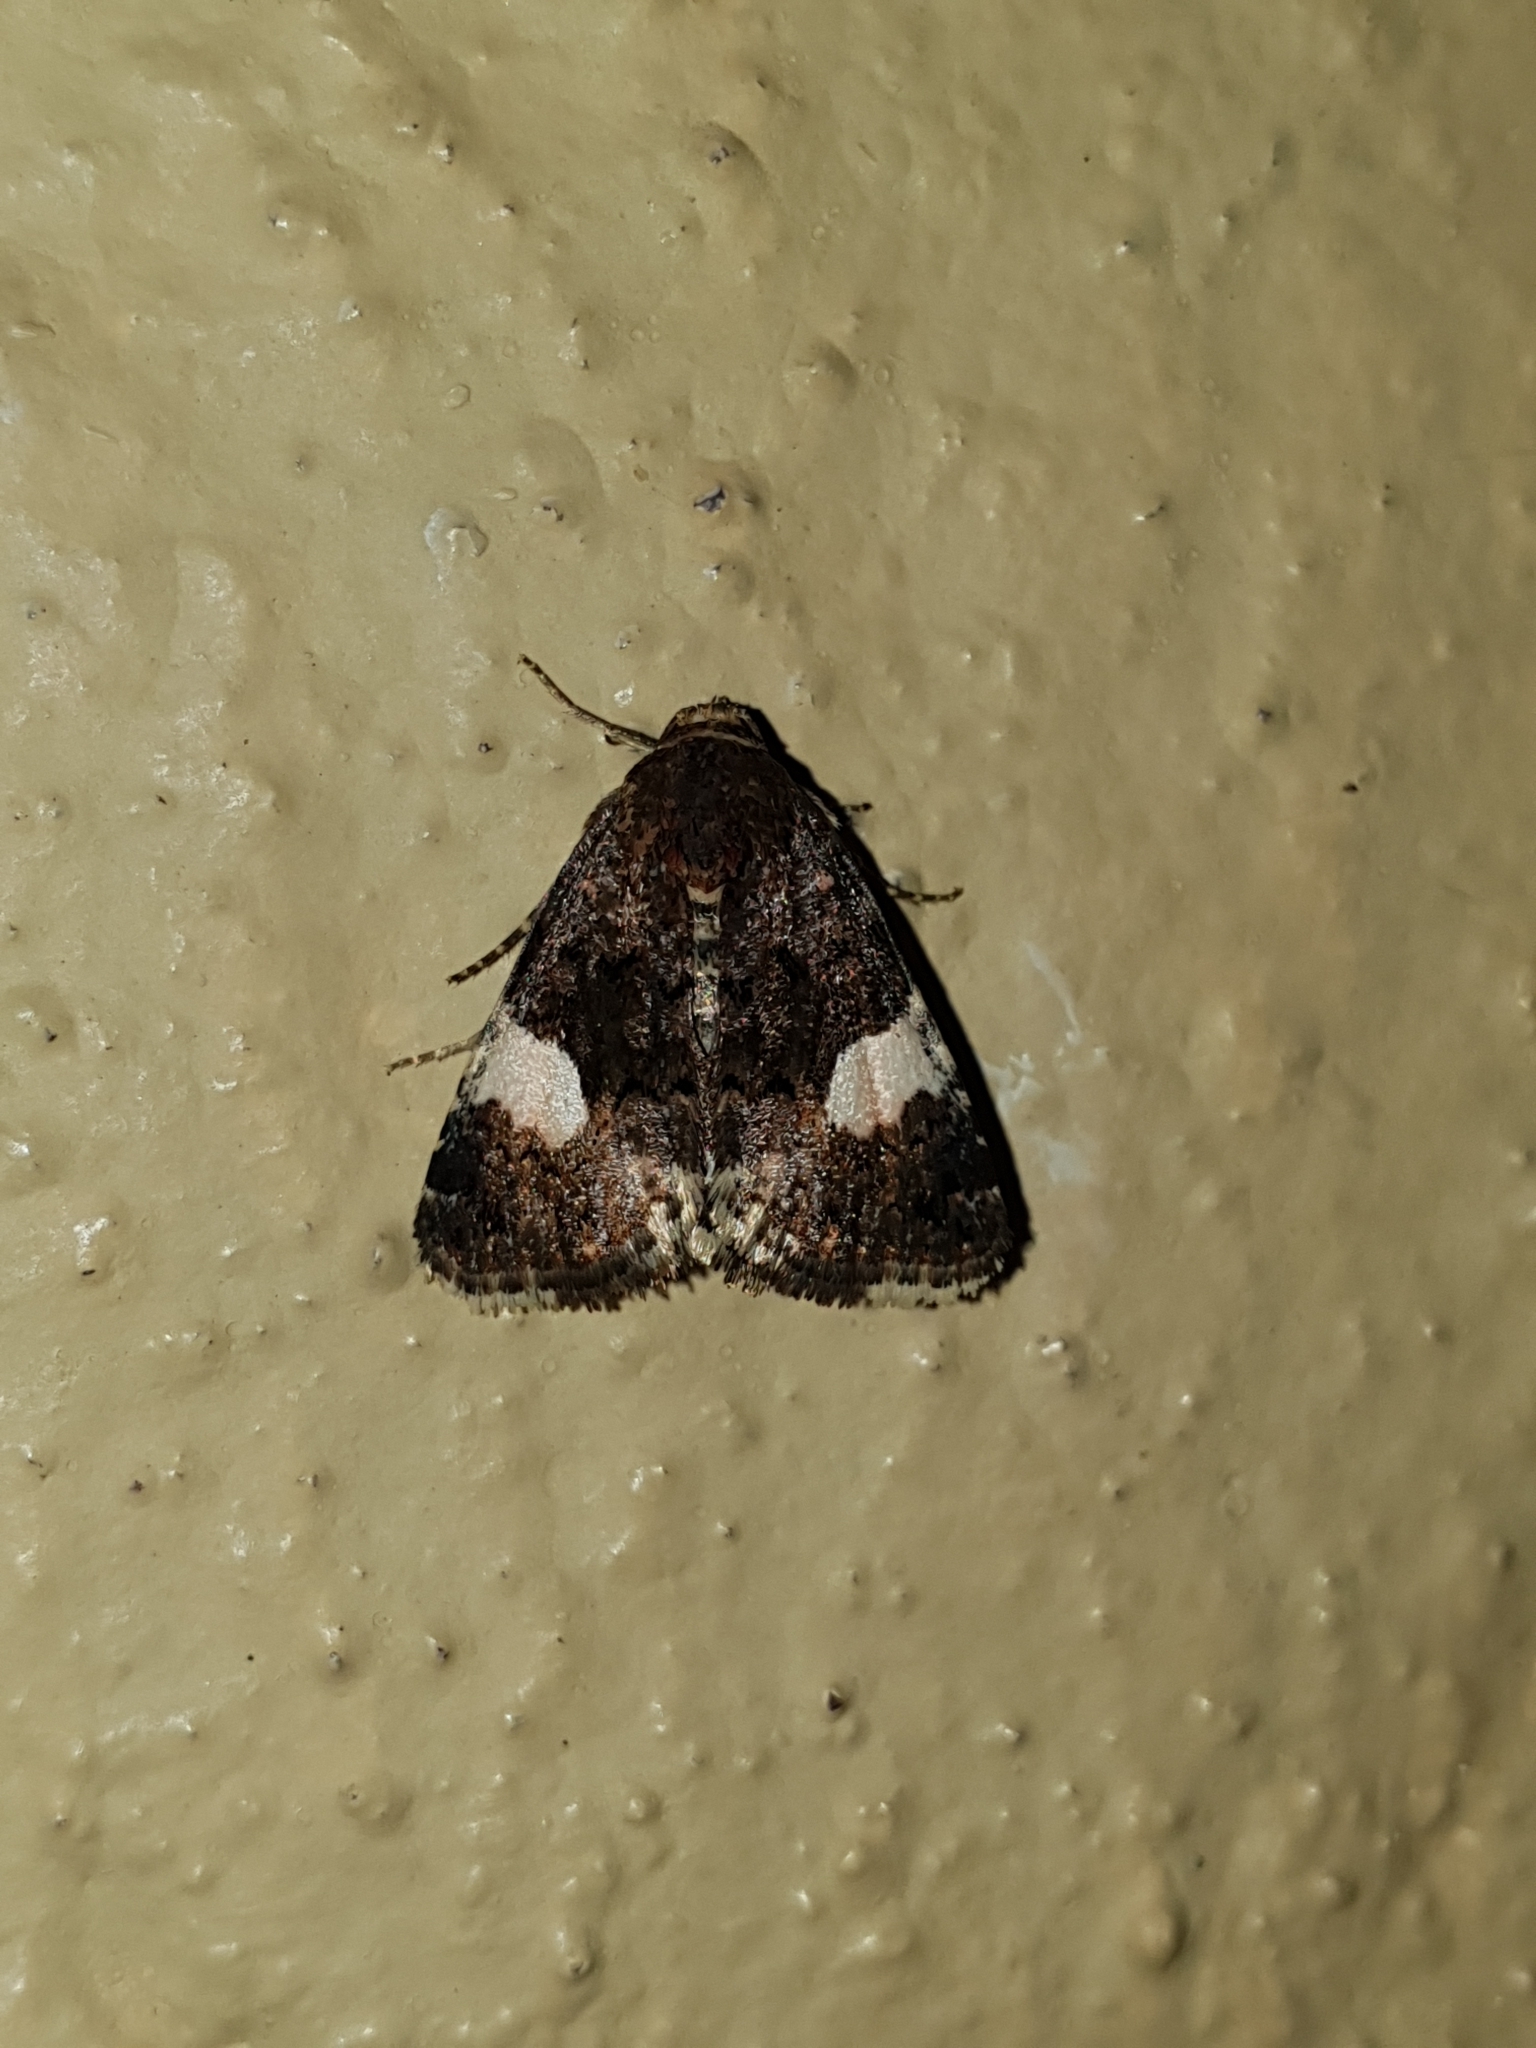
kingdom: Animalia
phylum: Arthropoda
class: Insecta
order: Lepidoptera
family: Erebidae
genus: Tyta
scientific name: Tyta luctuosa
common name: Four-spotted
